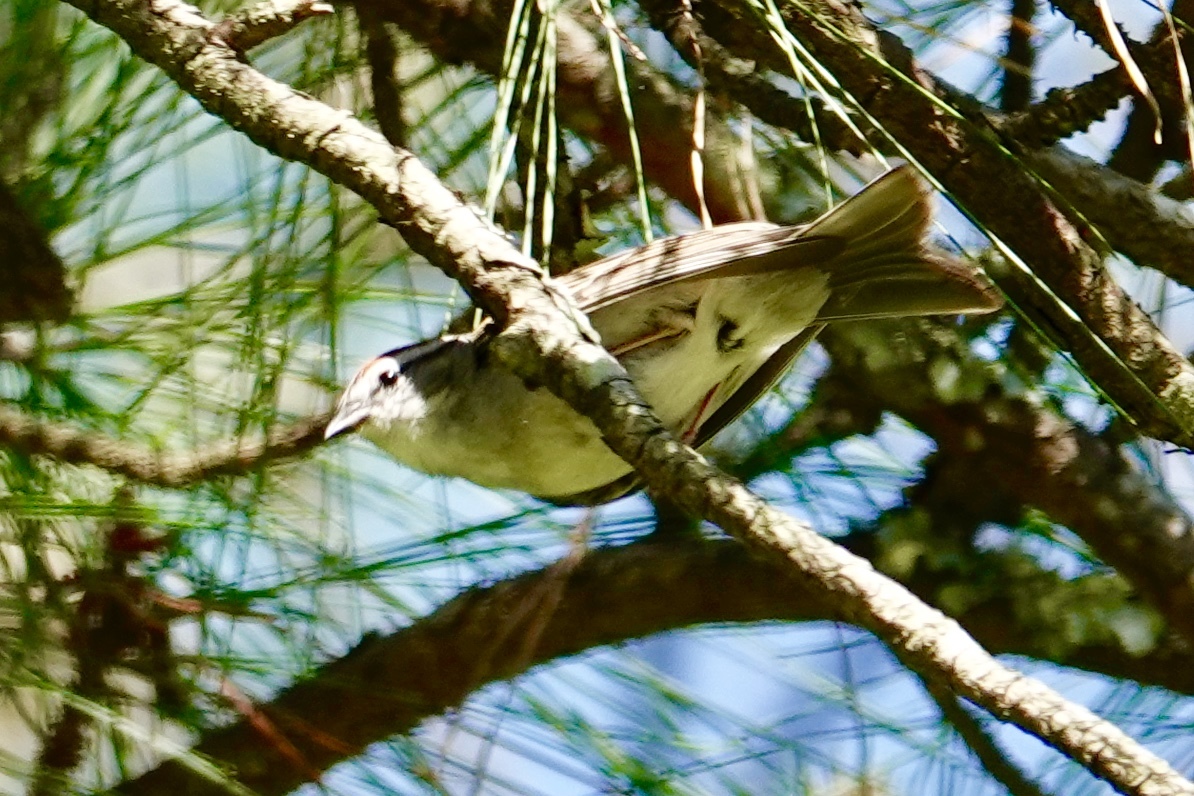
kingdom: Animalia
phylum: Chordata
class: Aves
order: Passeriformes
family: Passerellidae
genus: Spizella
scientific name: Spizella passerina
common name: Chipping sparrow
